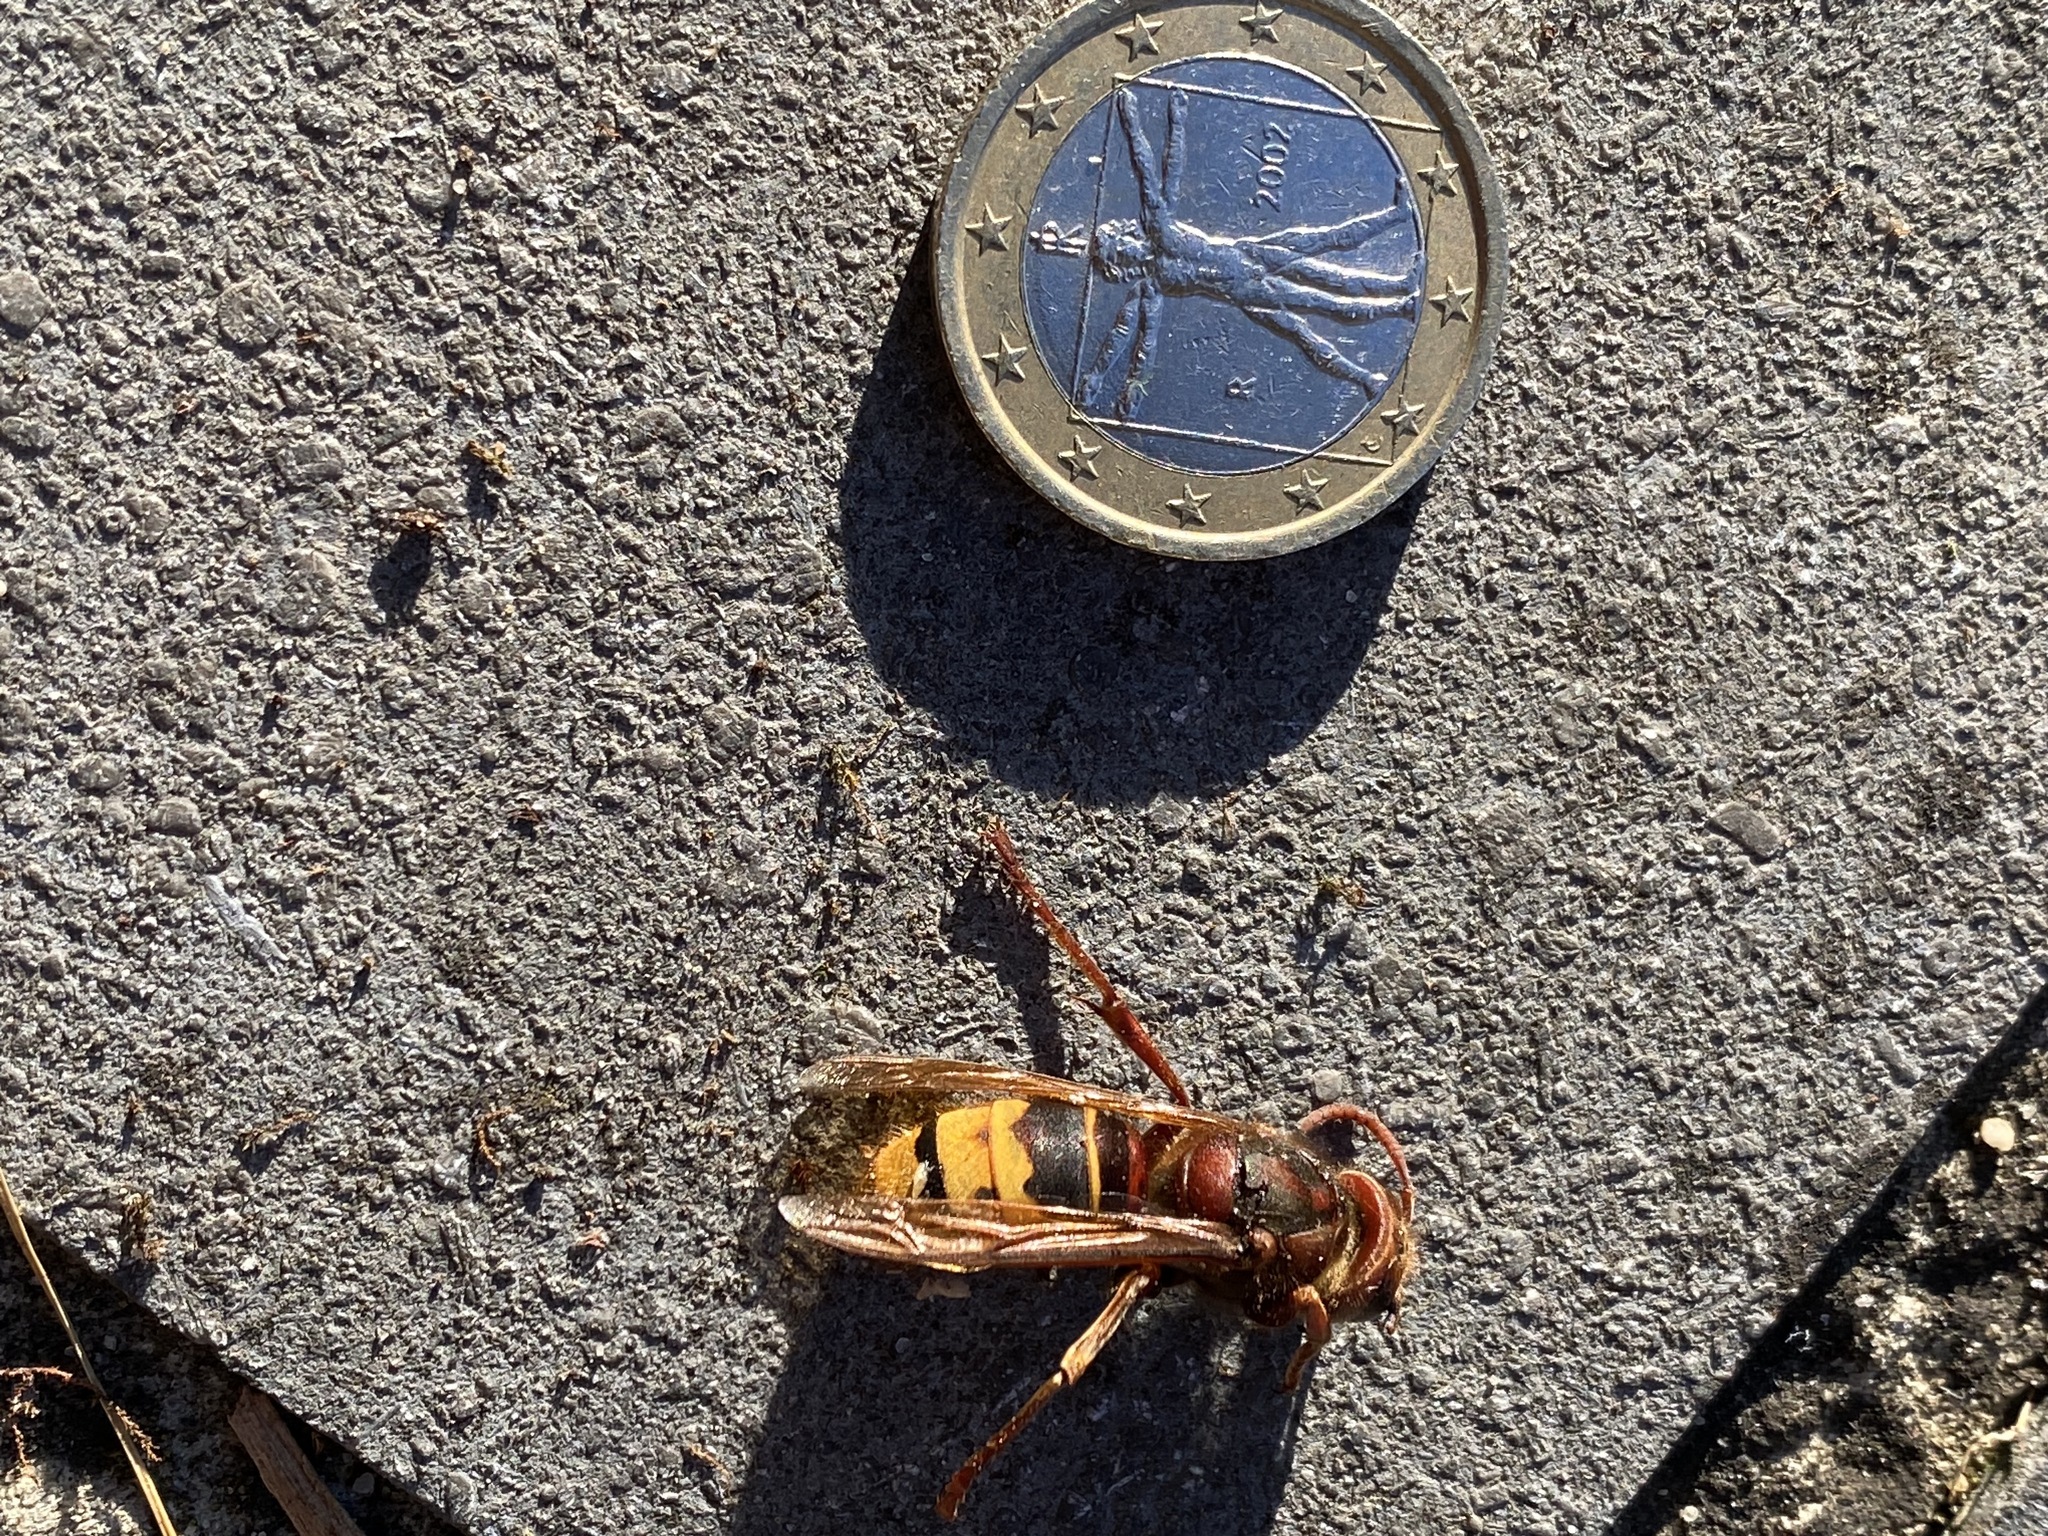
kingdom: Animalia
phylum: Arthropoda
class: Insecta
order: Hymenoptera
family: Vespidae
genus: Vespa
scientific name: Vespa crabro
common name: Hornet
